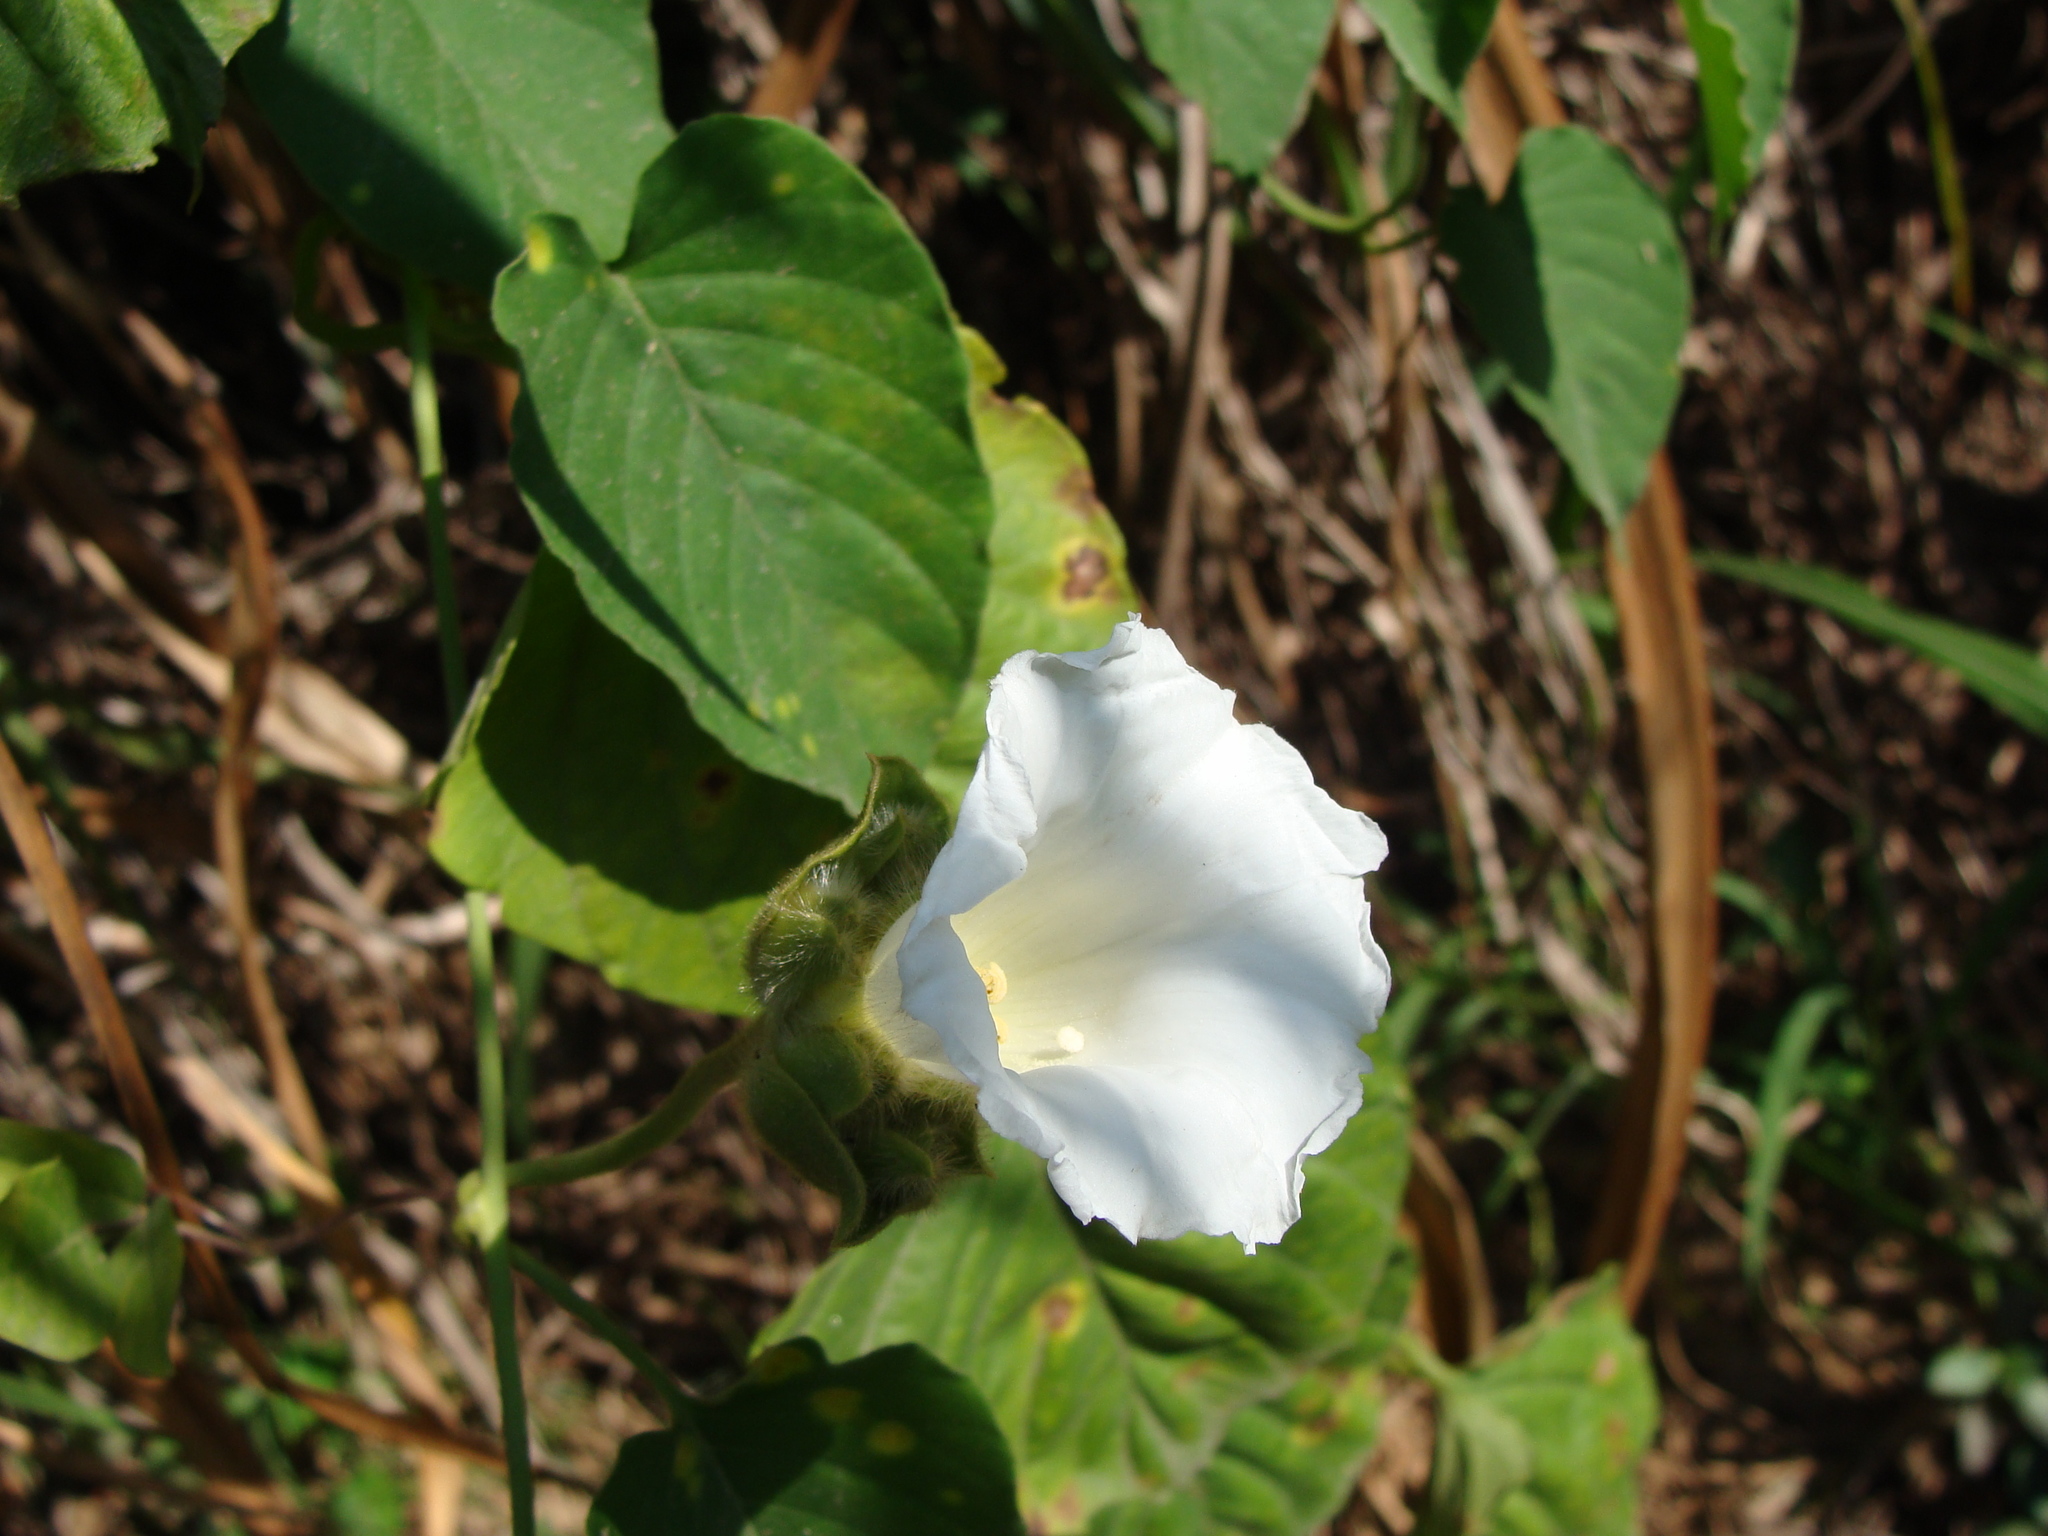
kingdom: Plantae
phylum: Tracheophyta
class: Magnoliopsida
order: Solanales
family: Convolvulaceae
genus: Odonellia
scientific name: Odonellia hirtiflora
